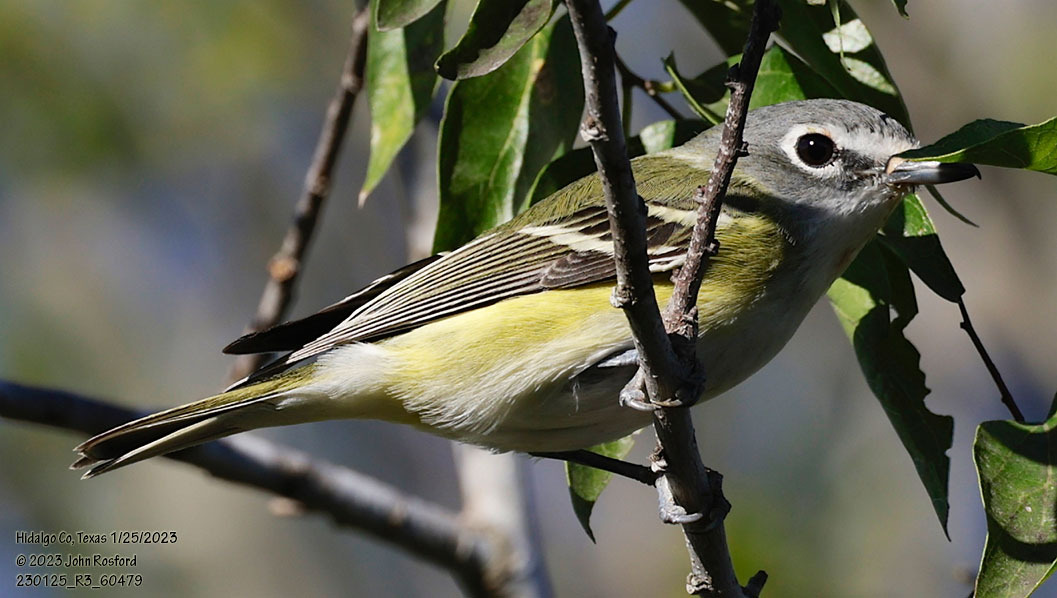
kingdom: Animalia
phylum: Chordata
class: Aves
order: Passeriformes
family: Vireonidae
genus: Vireo
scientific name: Vireo solitarius
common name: Blue-headed vireo
